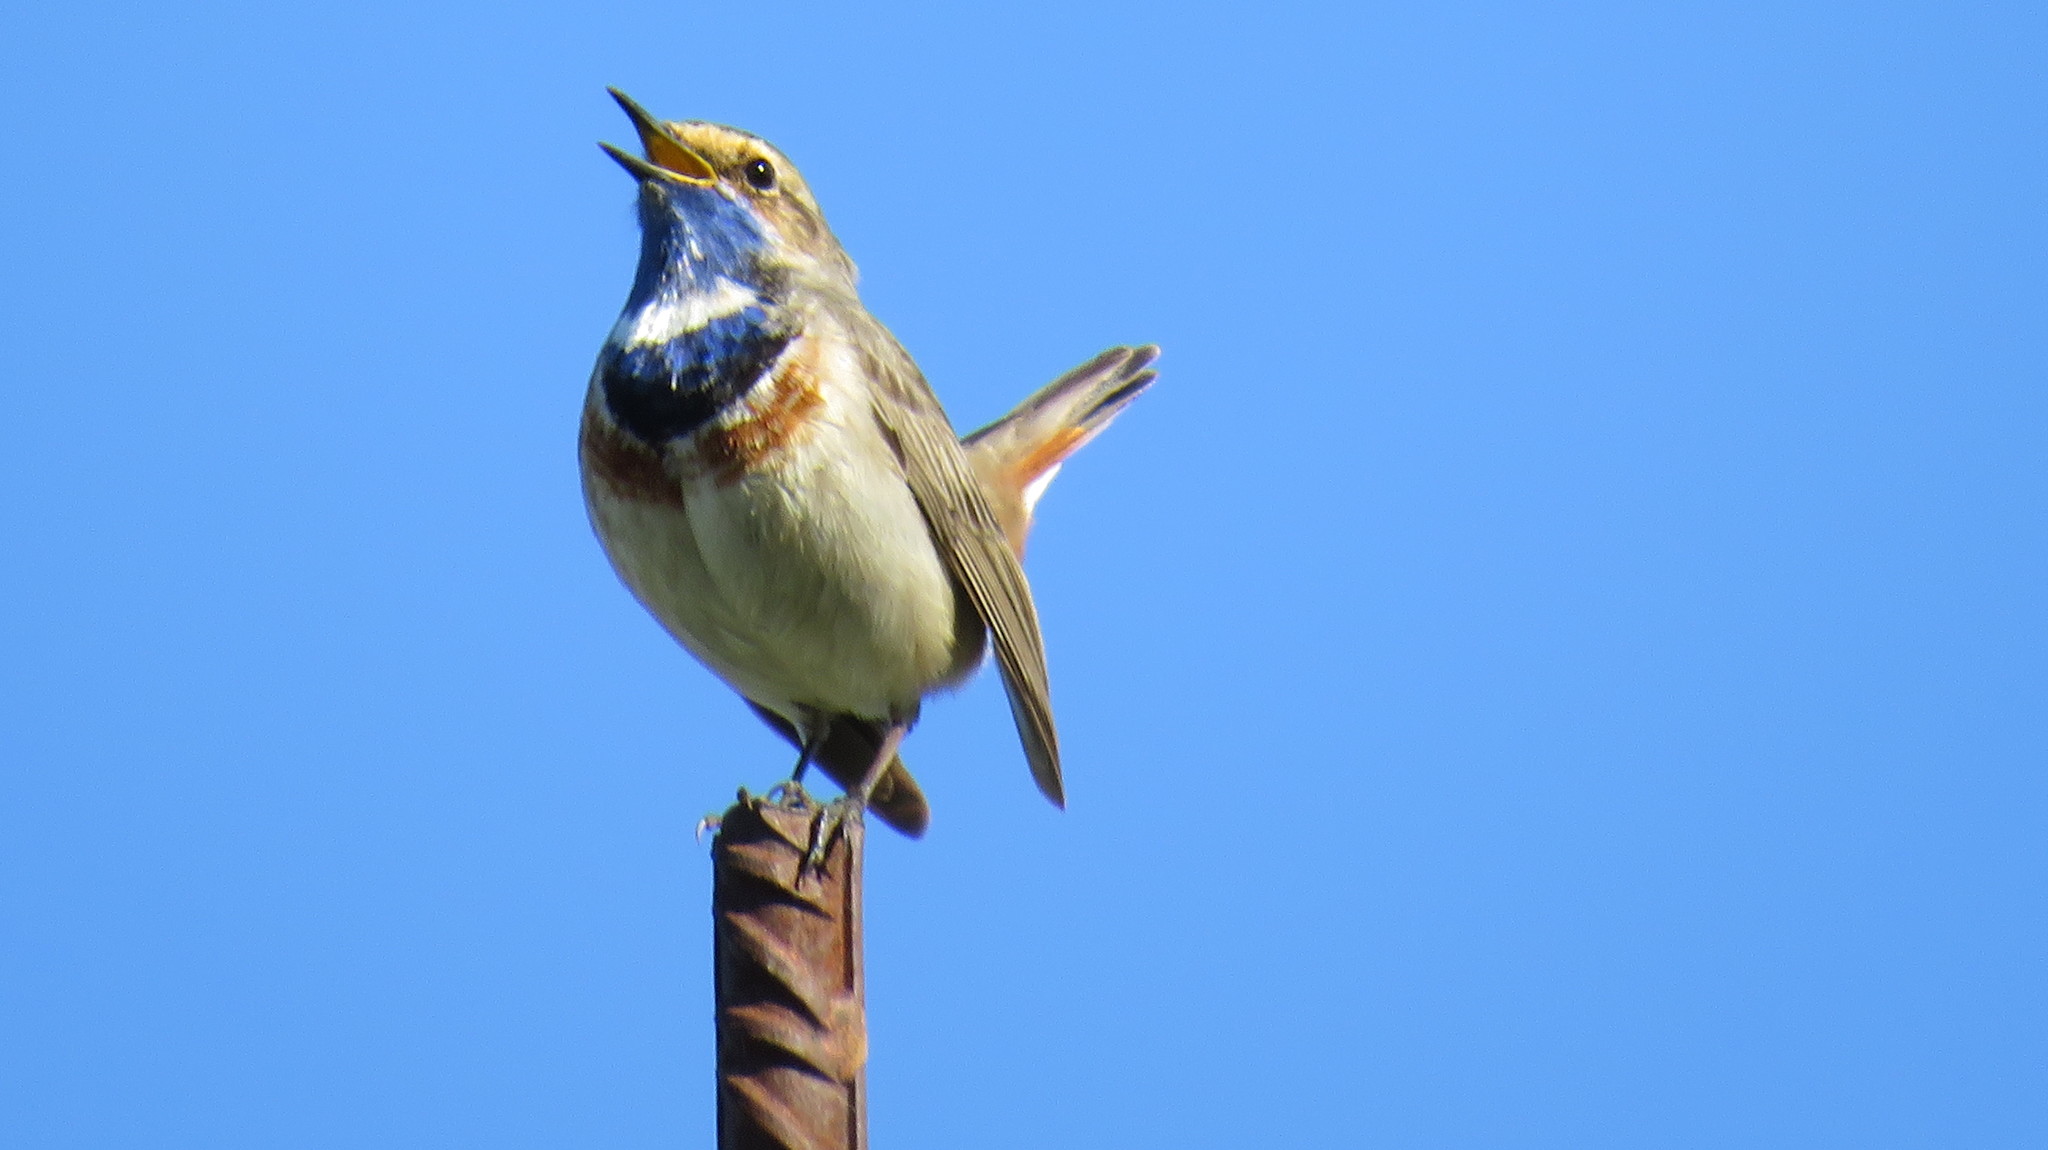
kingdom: Animalia
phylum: Chordata
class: Aves
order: Passeriformes
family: Muscicapidae
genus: Luscinia
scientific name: Luscinia svecica
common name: Bluethroat
